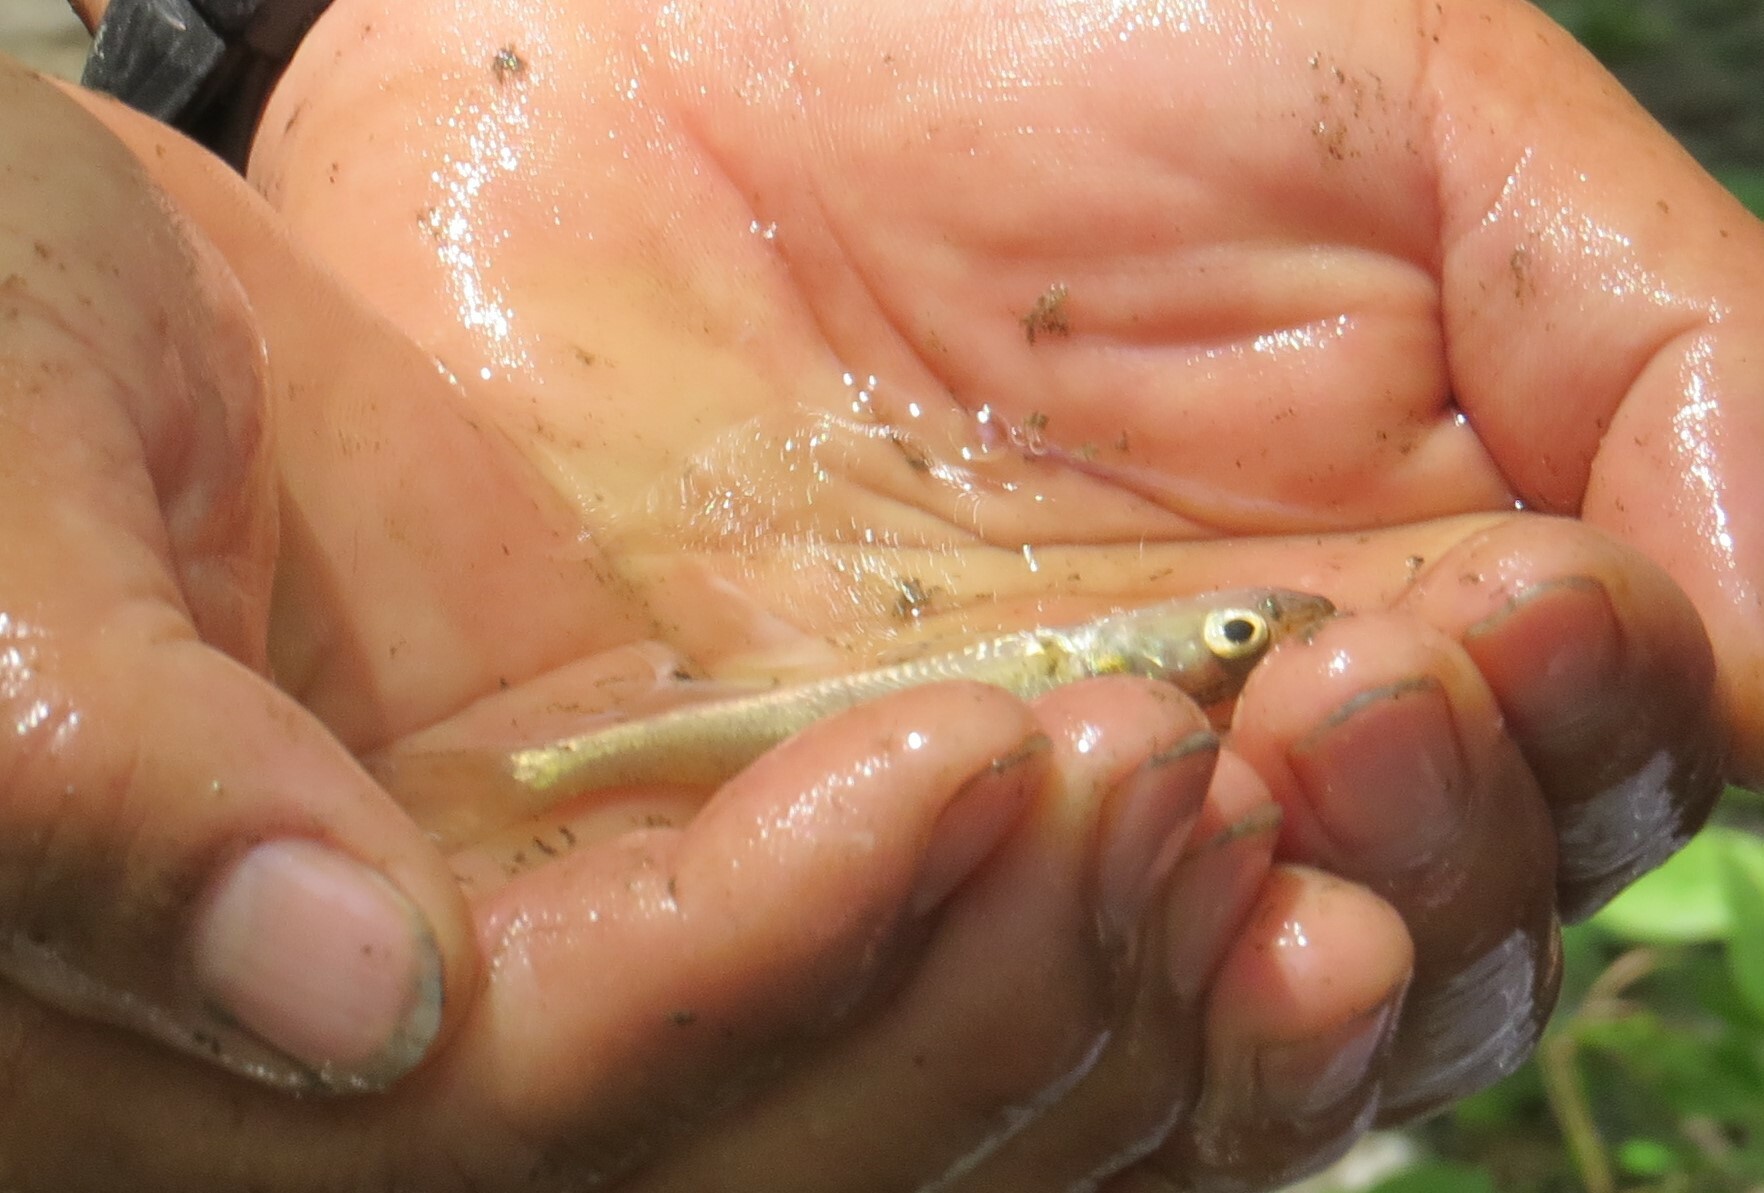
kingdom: Animalia
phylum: Chordata
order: Perciformes
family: Percidae
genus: Sander
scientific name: Sander vitreus
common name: Walleye
